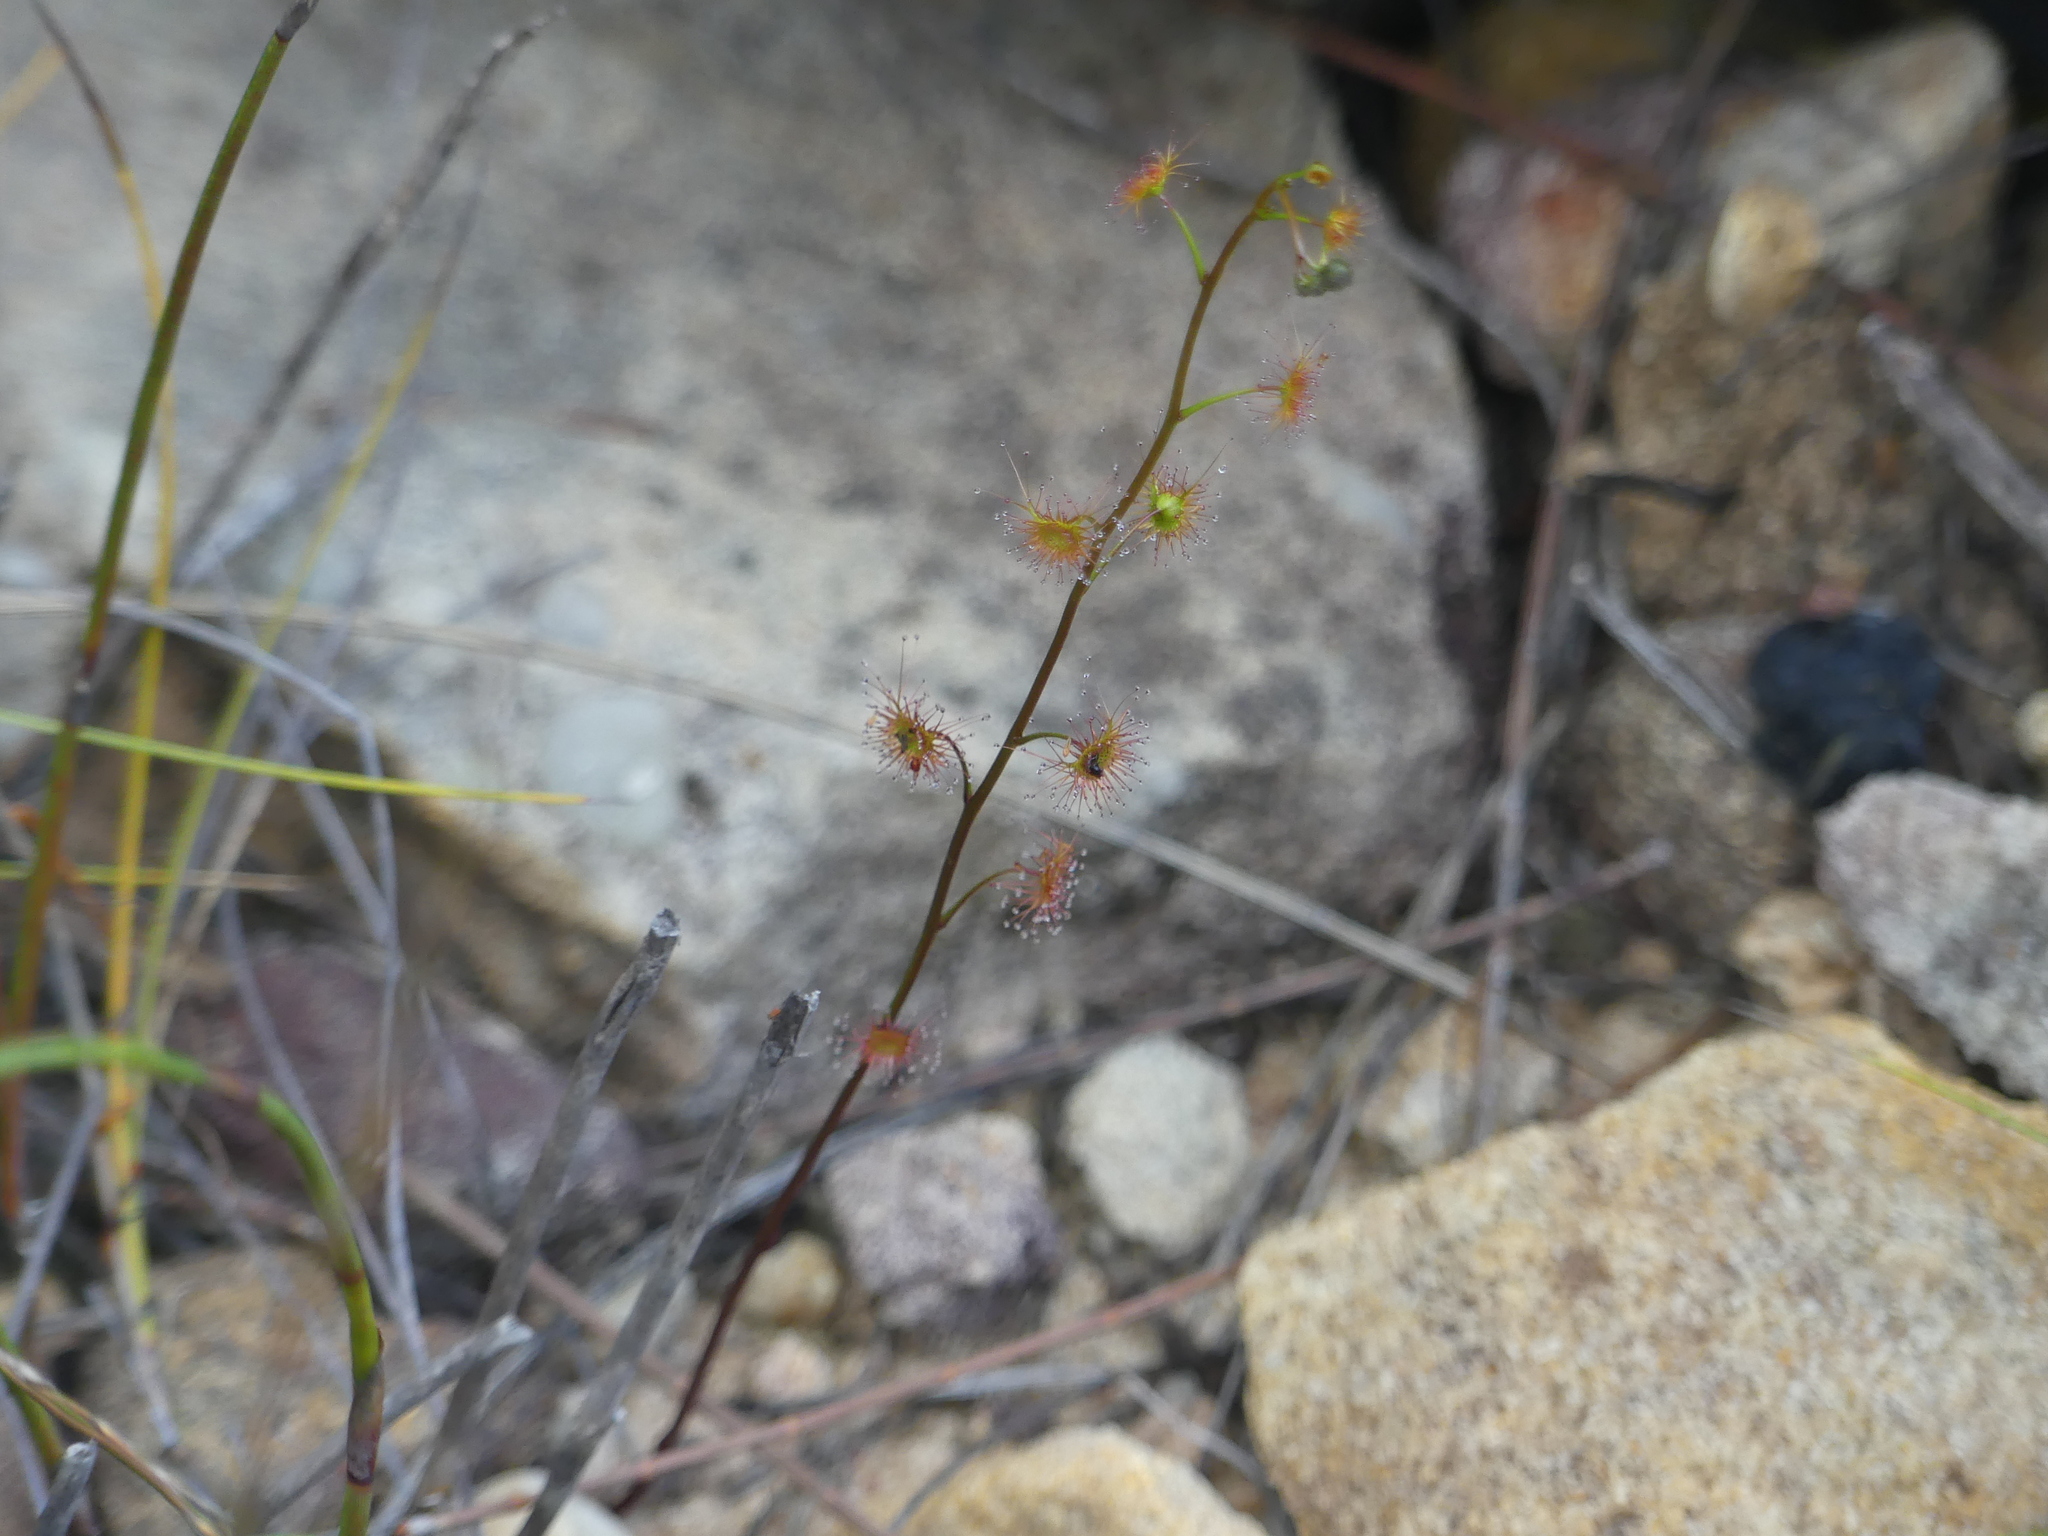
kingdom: Plantae
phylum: Tracheophyta
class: Magnoliopsida
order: Caryophyllales
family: Droseraceae
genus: Drosera
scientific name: Drosera peltata
